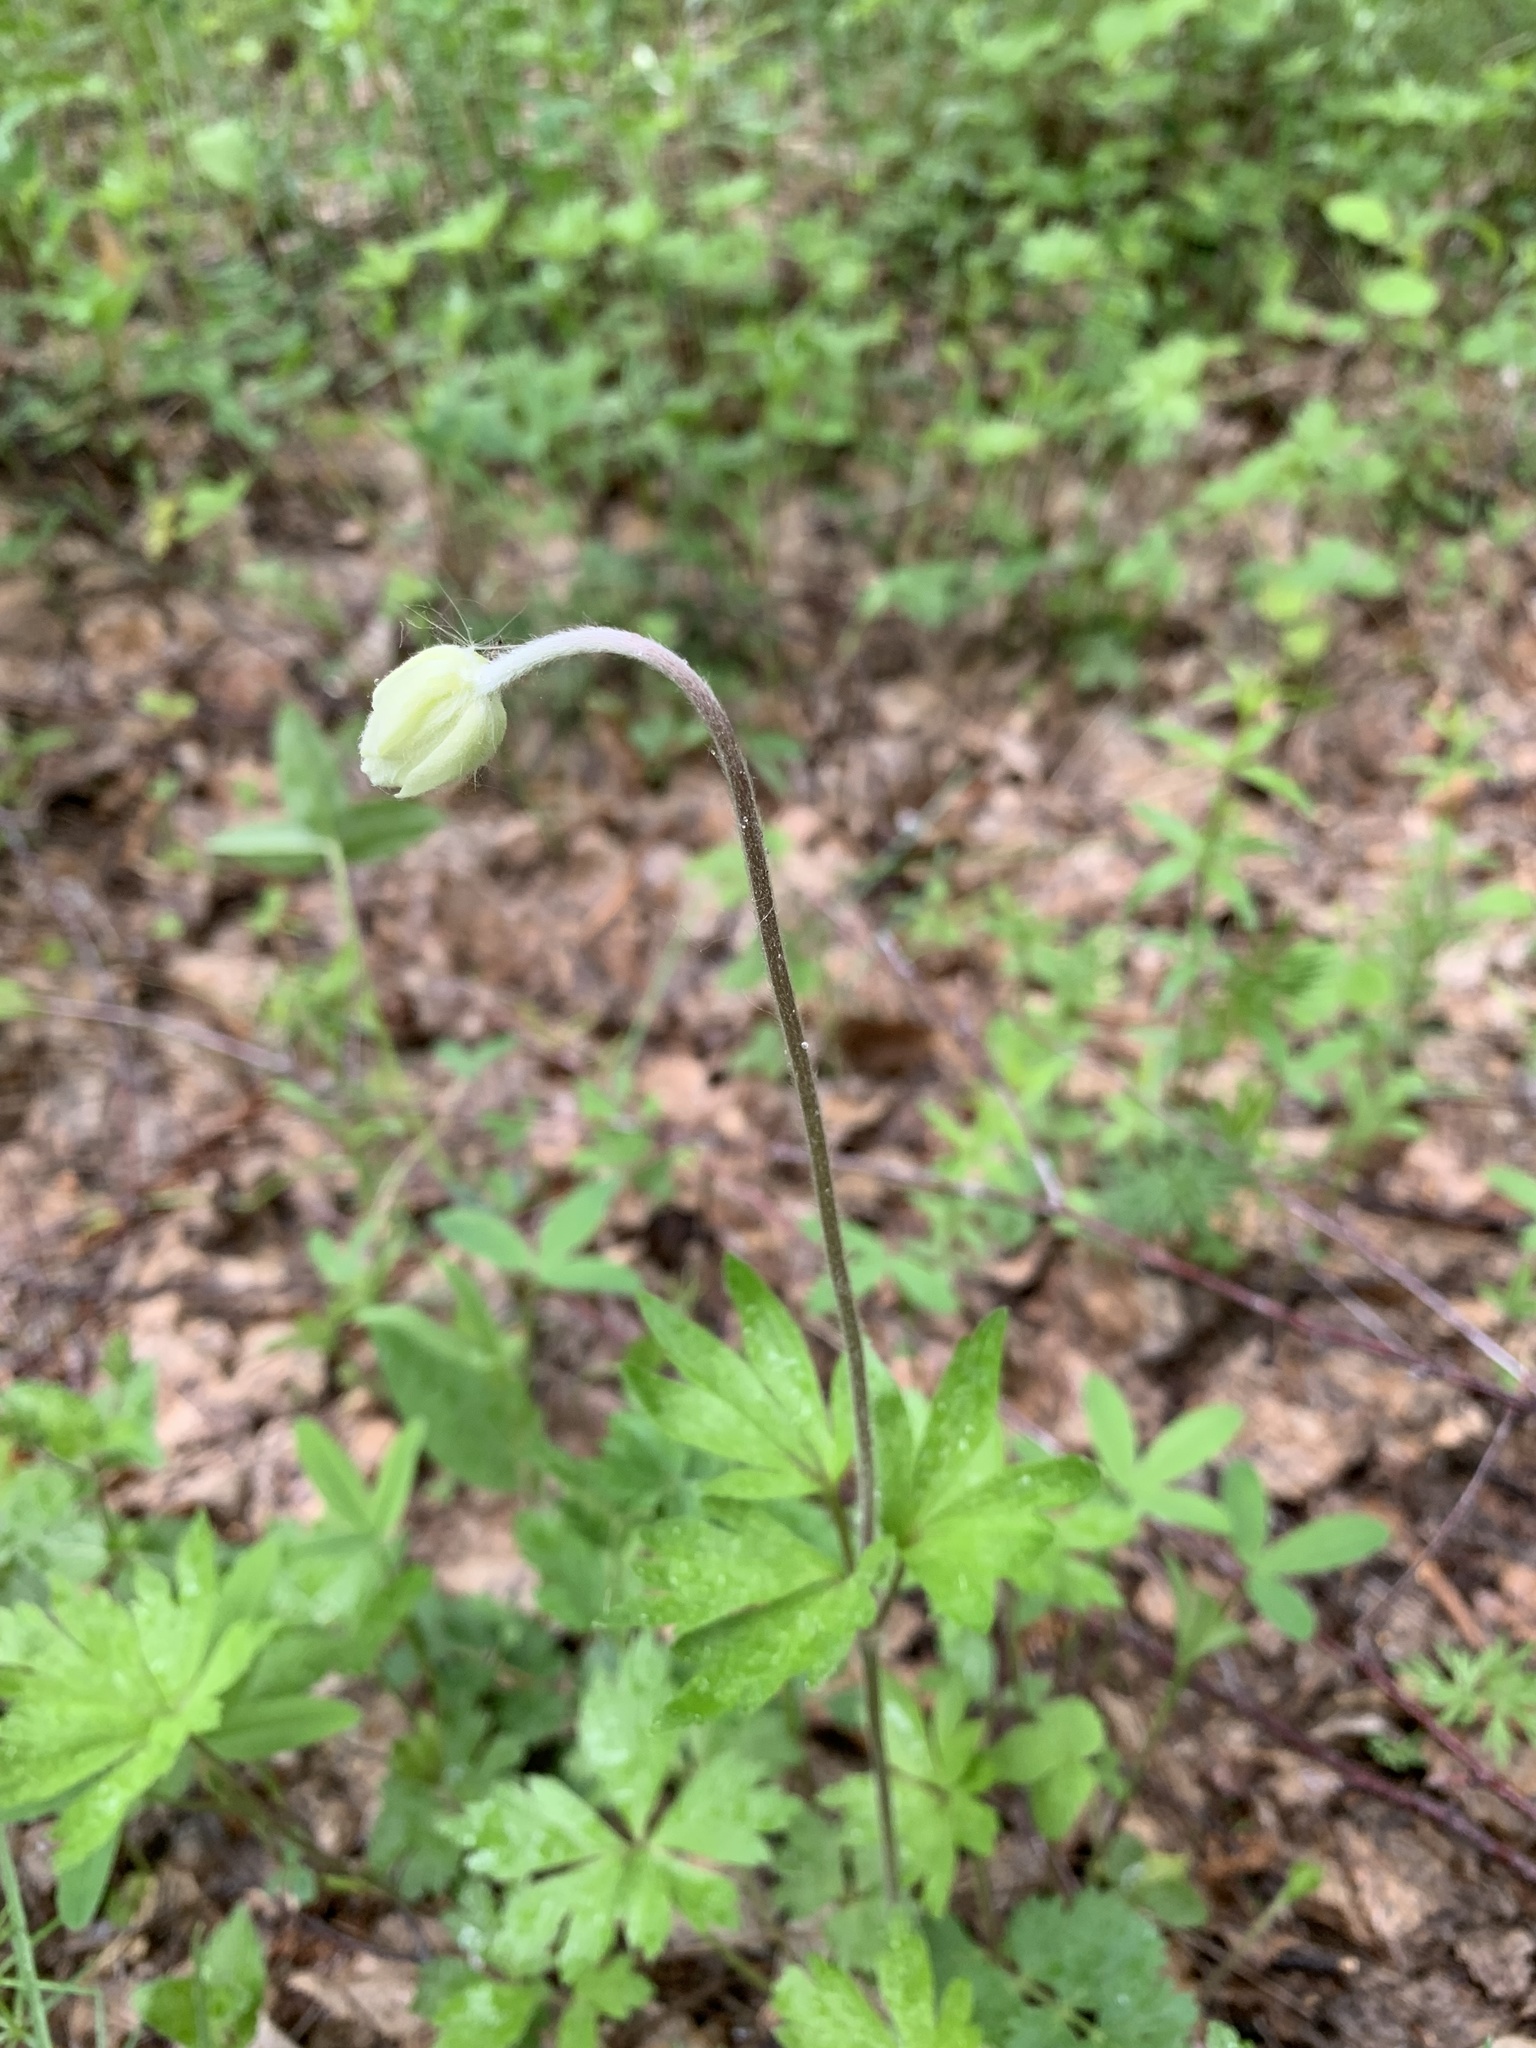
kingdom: Plantae
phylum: Tracheophyta
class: Magnoliopsida
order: Ranunculales
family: Ranunculaceae
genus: Anemone
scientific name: Anemone sylvestris
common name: Snowdrop anemone
